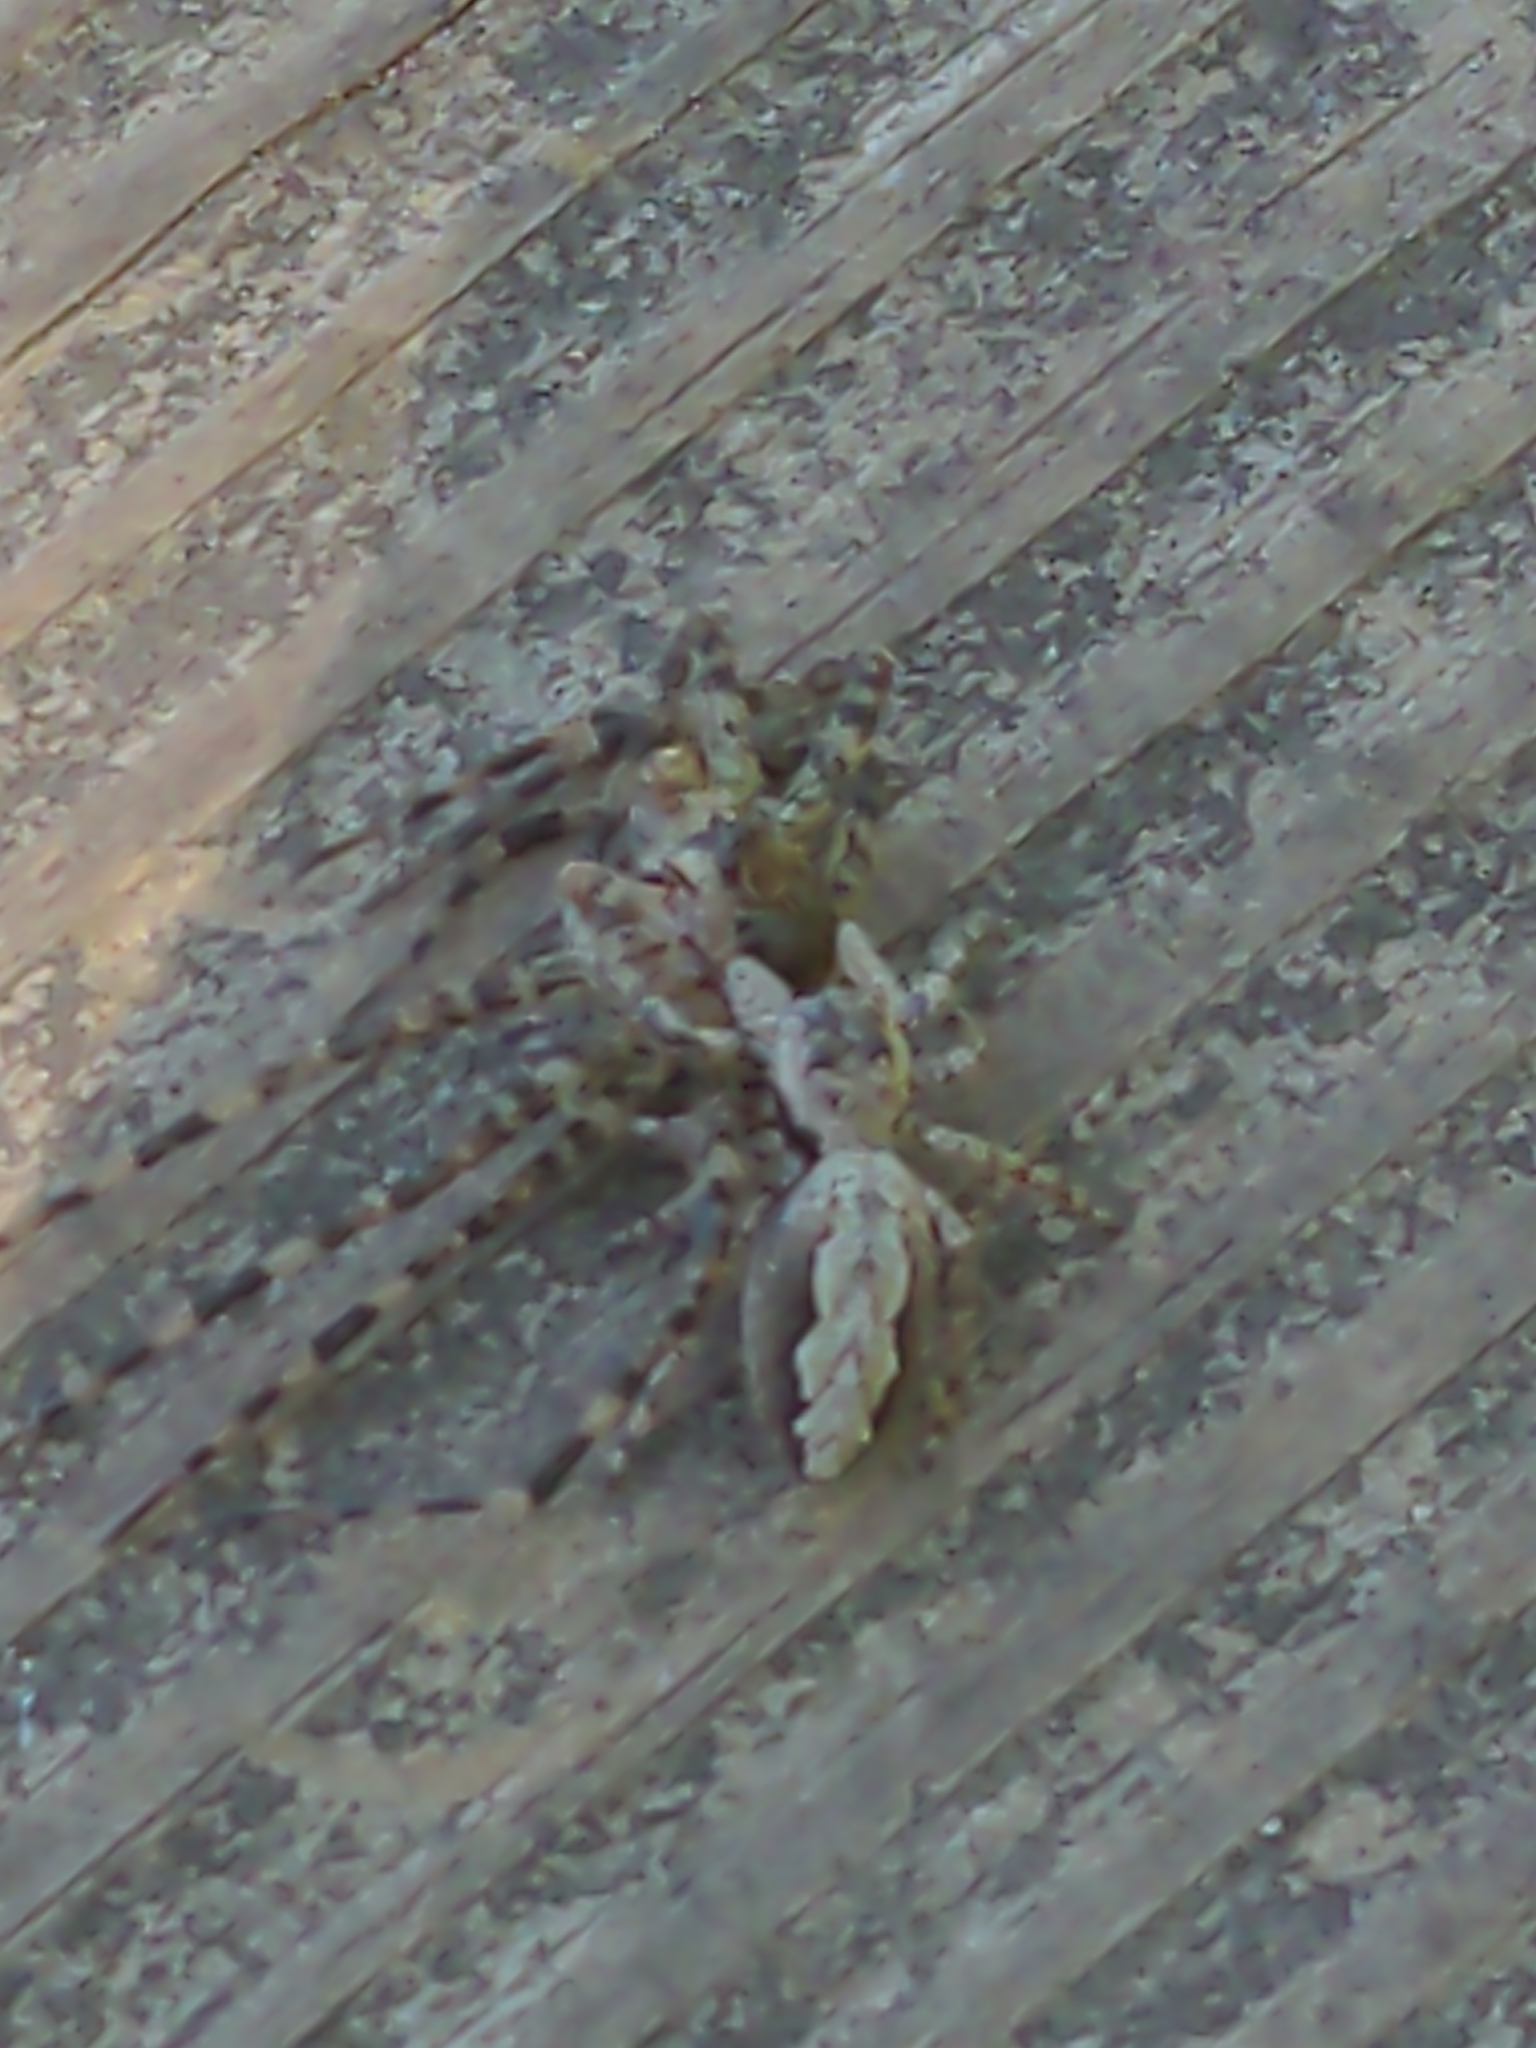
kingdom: Animalia
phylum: Arthropoda
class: Arachnida
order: Araneae
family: Pisauridae
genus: Dolomedes
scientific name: Dolomedes tenebrosus
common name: Dark fishing spider
